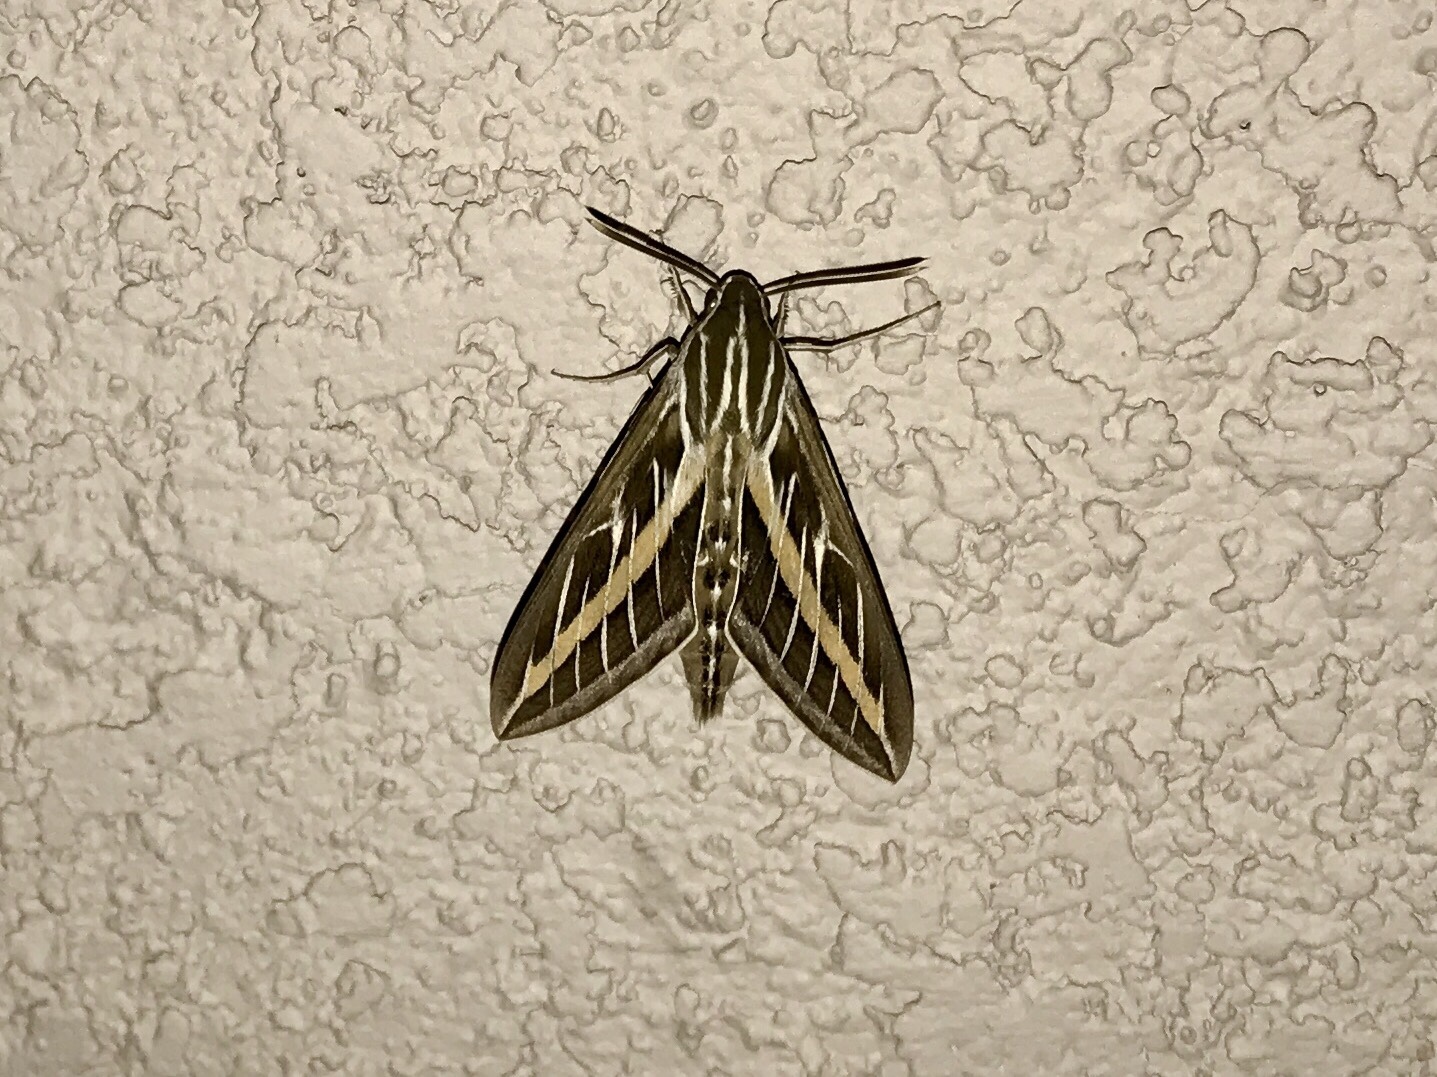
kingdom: Animalia
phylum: Arthropoda
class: Insecta
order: Lepidoptera
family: Sphingidae
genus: Hyles
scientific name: Hyles lineata
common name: White-lined sphinx
